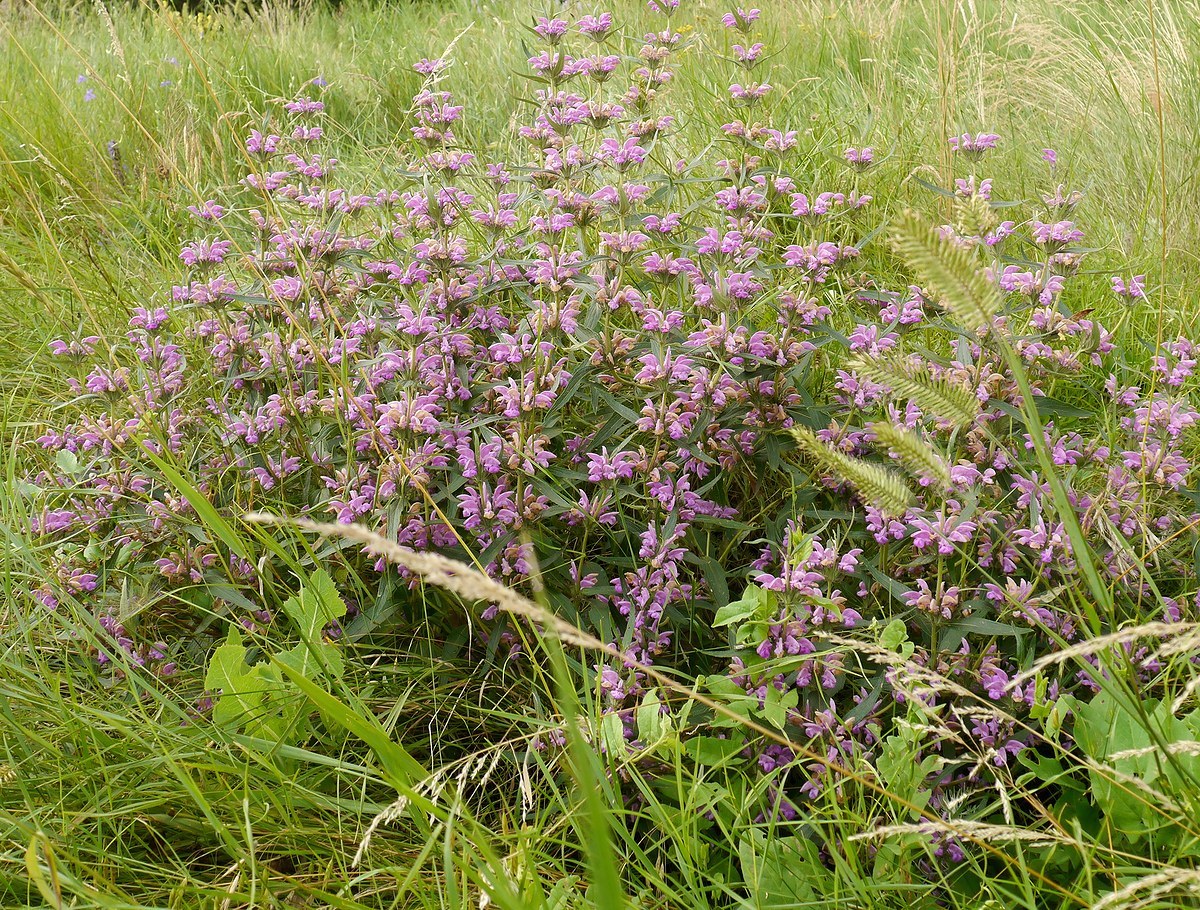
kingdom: Plantae
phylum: Tracheophyta
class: Magnoliopsida
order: Lamiales
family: Lamiaceae
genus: Phlomis
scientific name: Phlomis herba-venti
